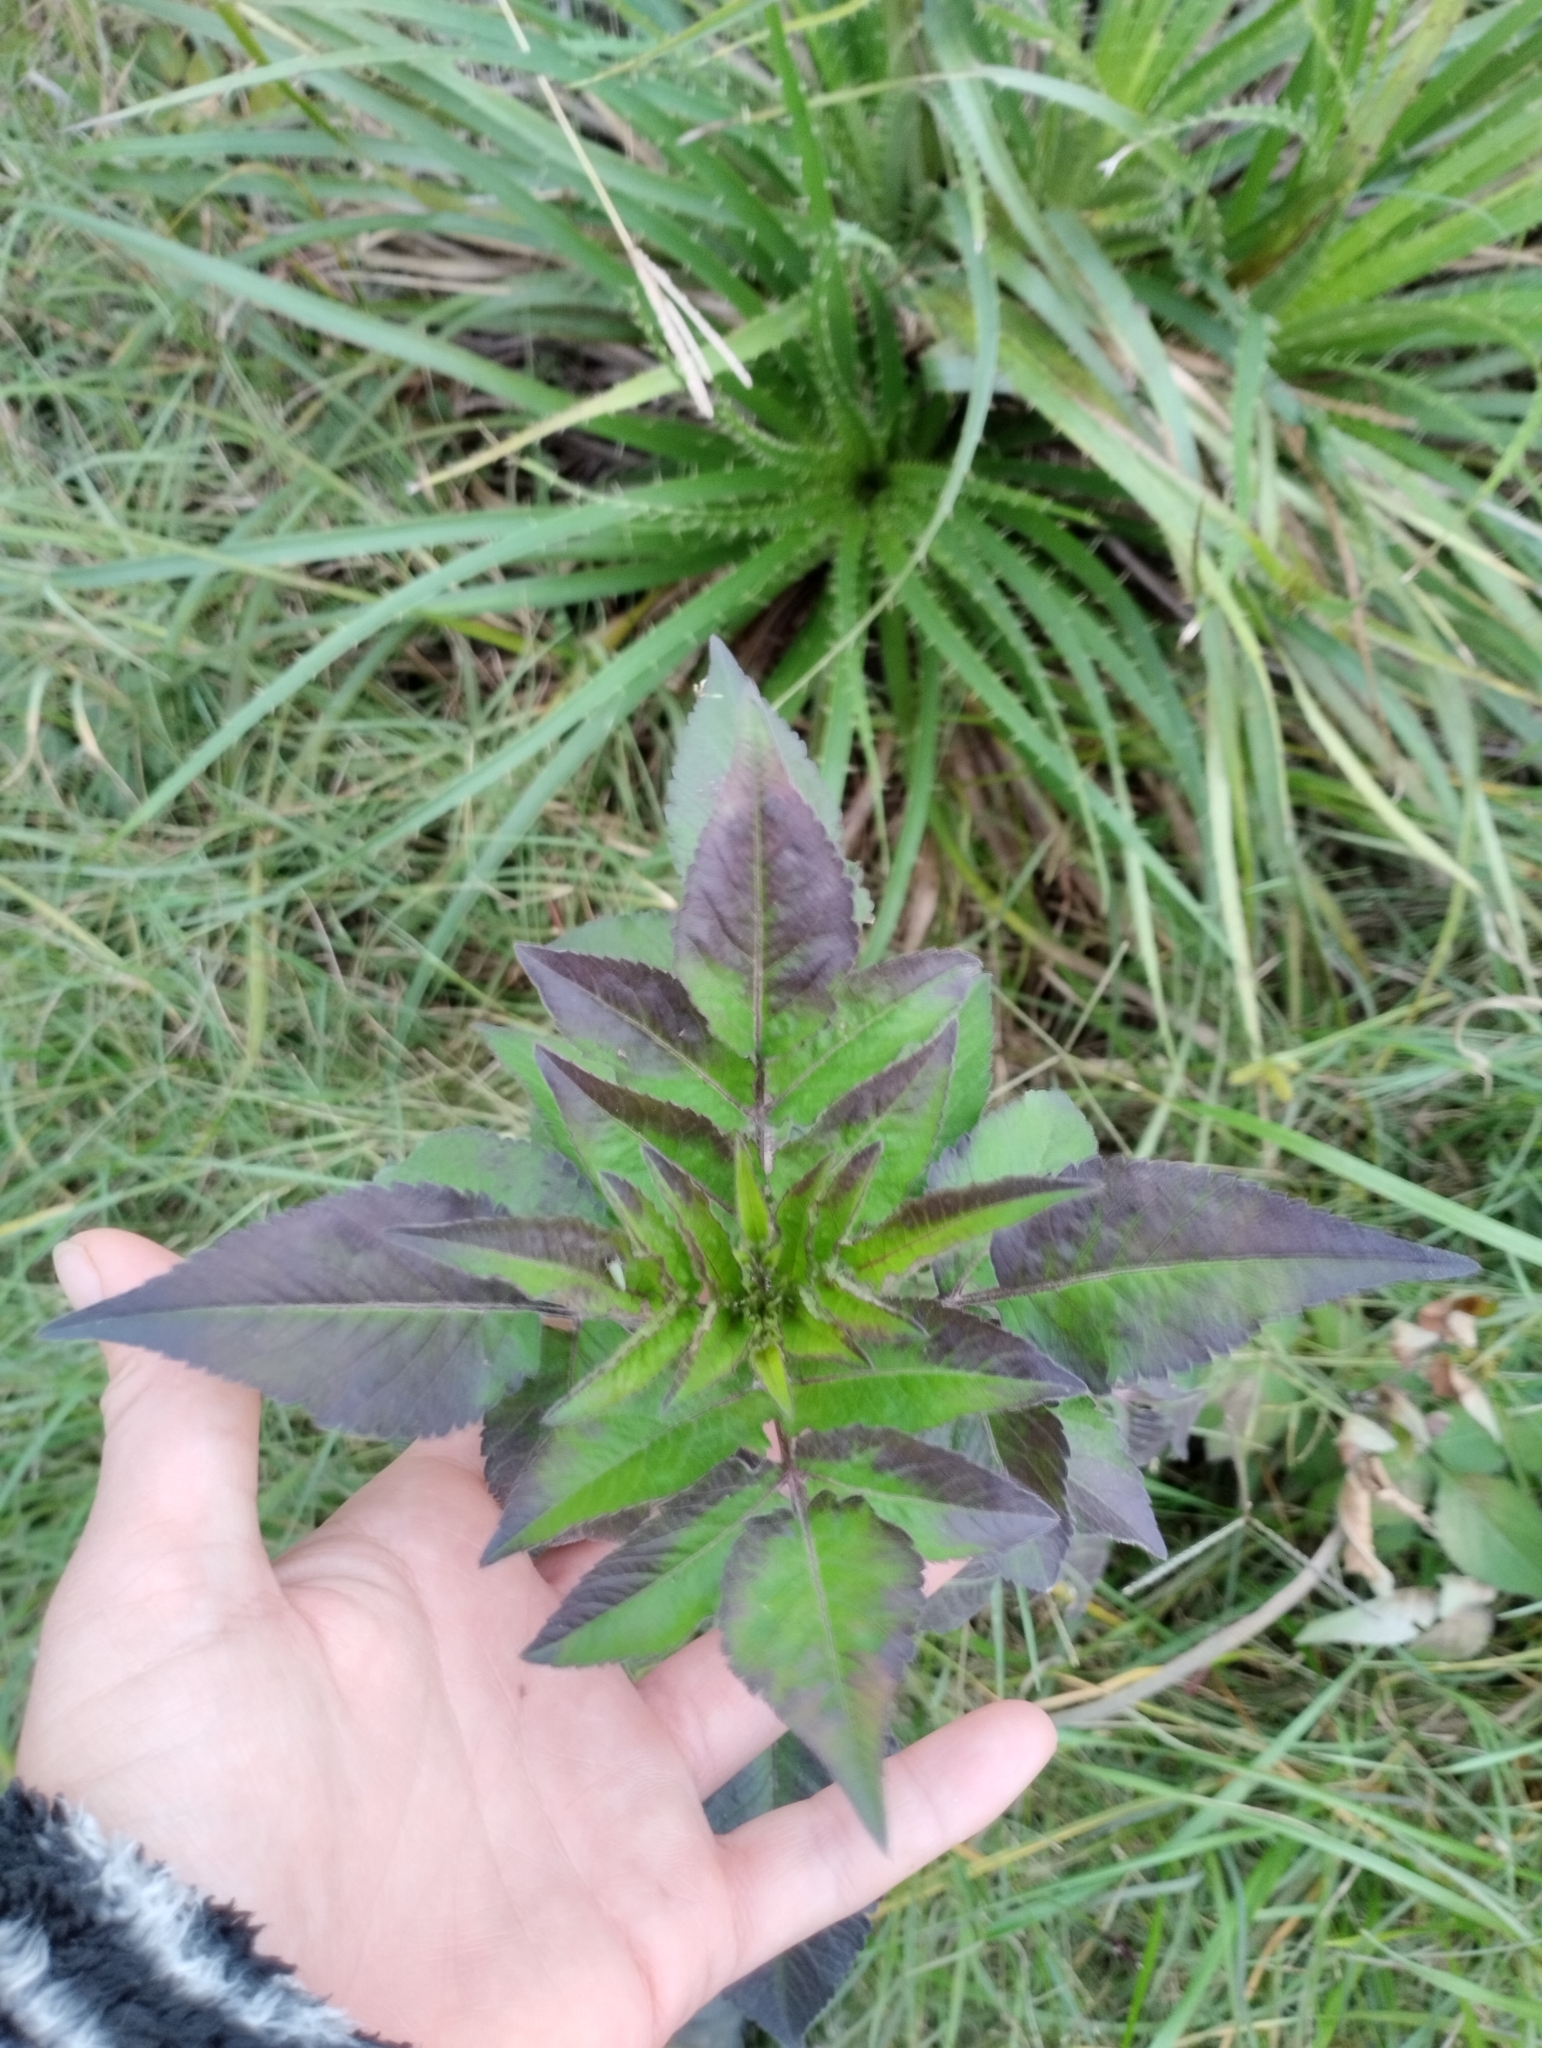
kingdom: Plantae
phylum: Tracheophyta
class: Magnoliopsida
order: Asterales
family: Asteraceae
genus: Bidens
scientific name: Bidens pilosa
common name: Black-jack
